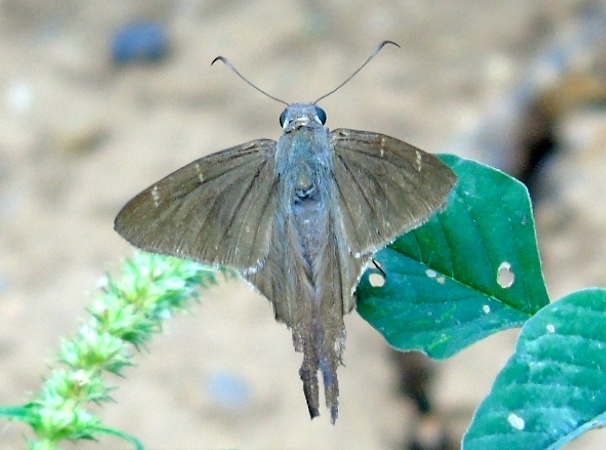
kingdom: Animalia
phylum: Arthropoda
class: Insecta
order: Lepidoptera
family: Hesperiidae
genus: Urbanus
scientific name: Urbanus procne
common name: Brown longtail
